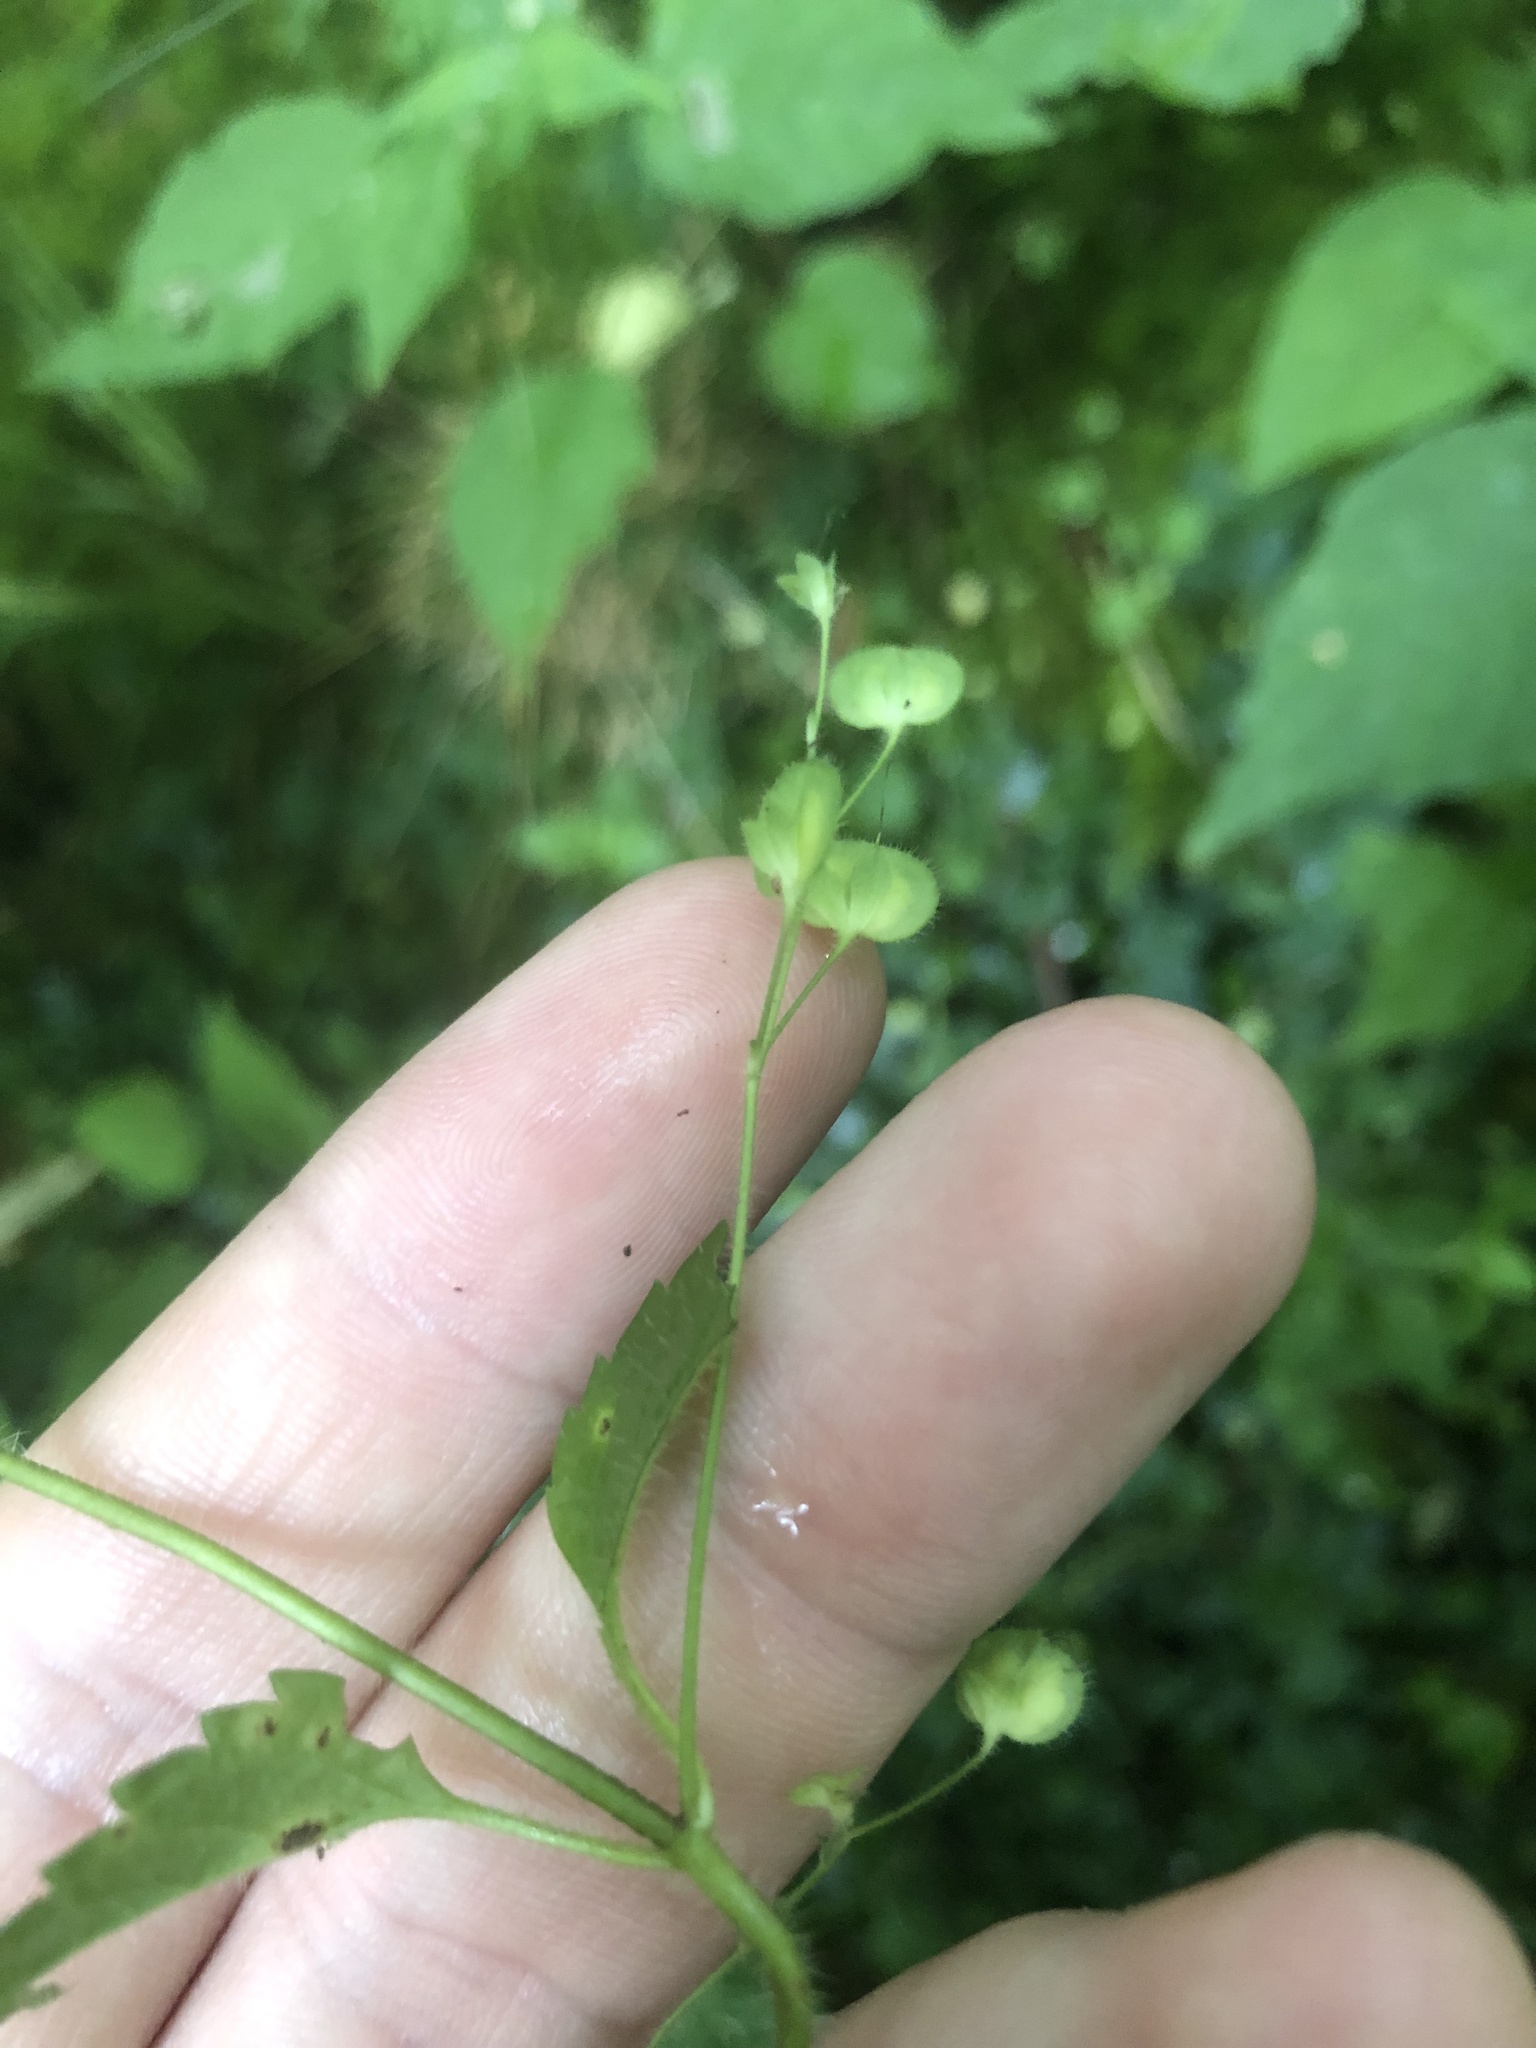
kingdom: Plantae
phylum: Tracheophyta
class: Magnoliopsida
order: Lamiales
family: Plantaginaceae
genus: Veronica
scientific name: Veronica montana
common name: Wood speedwell
